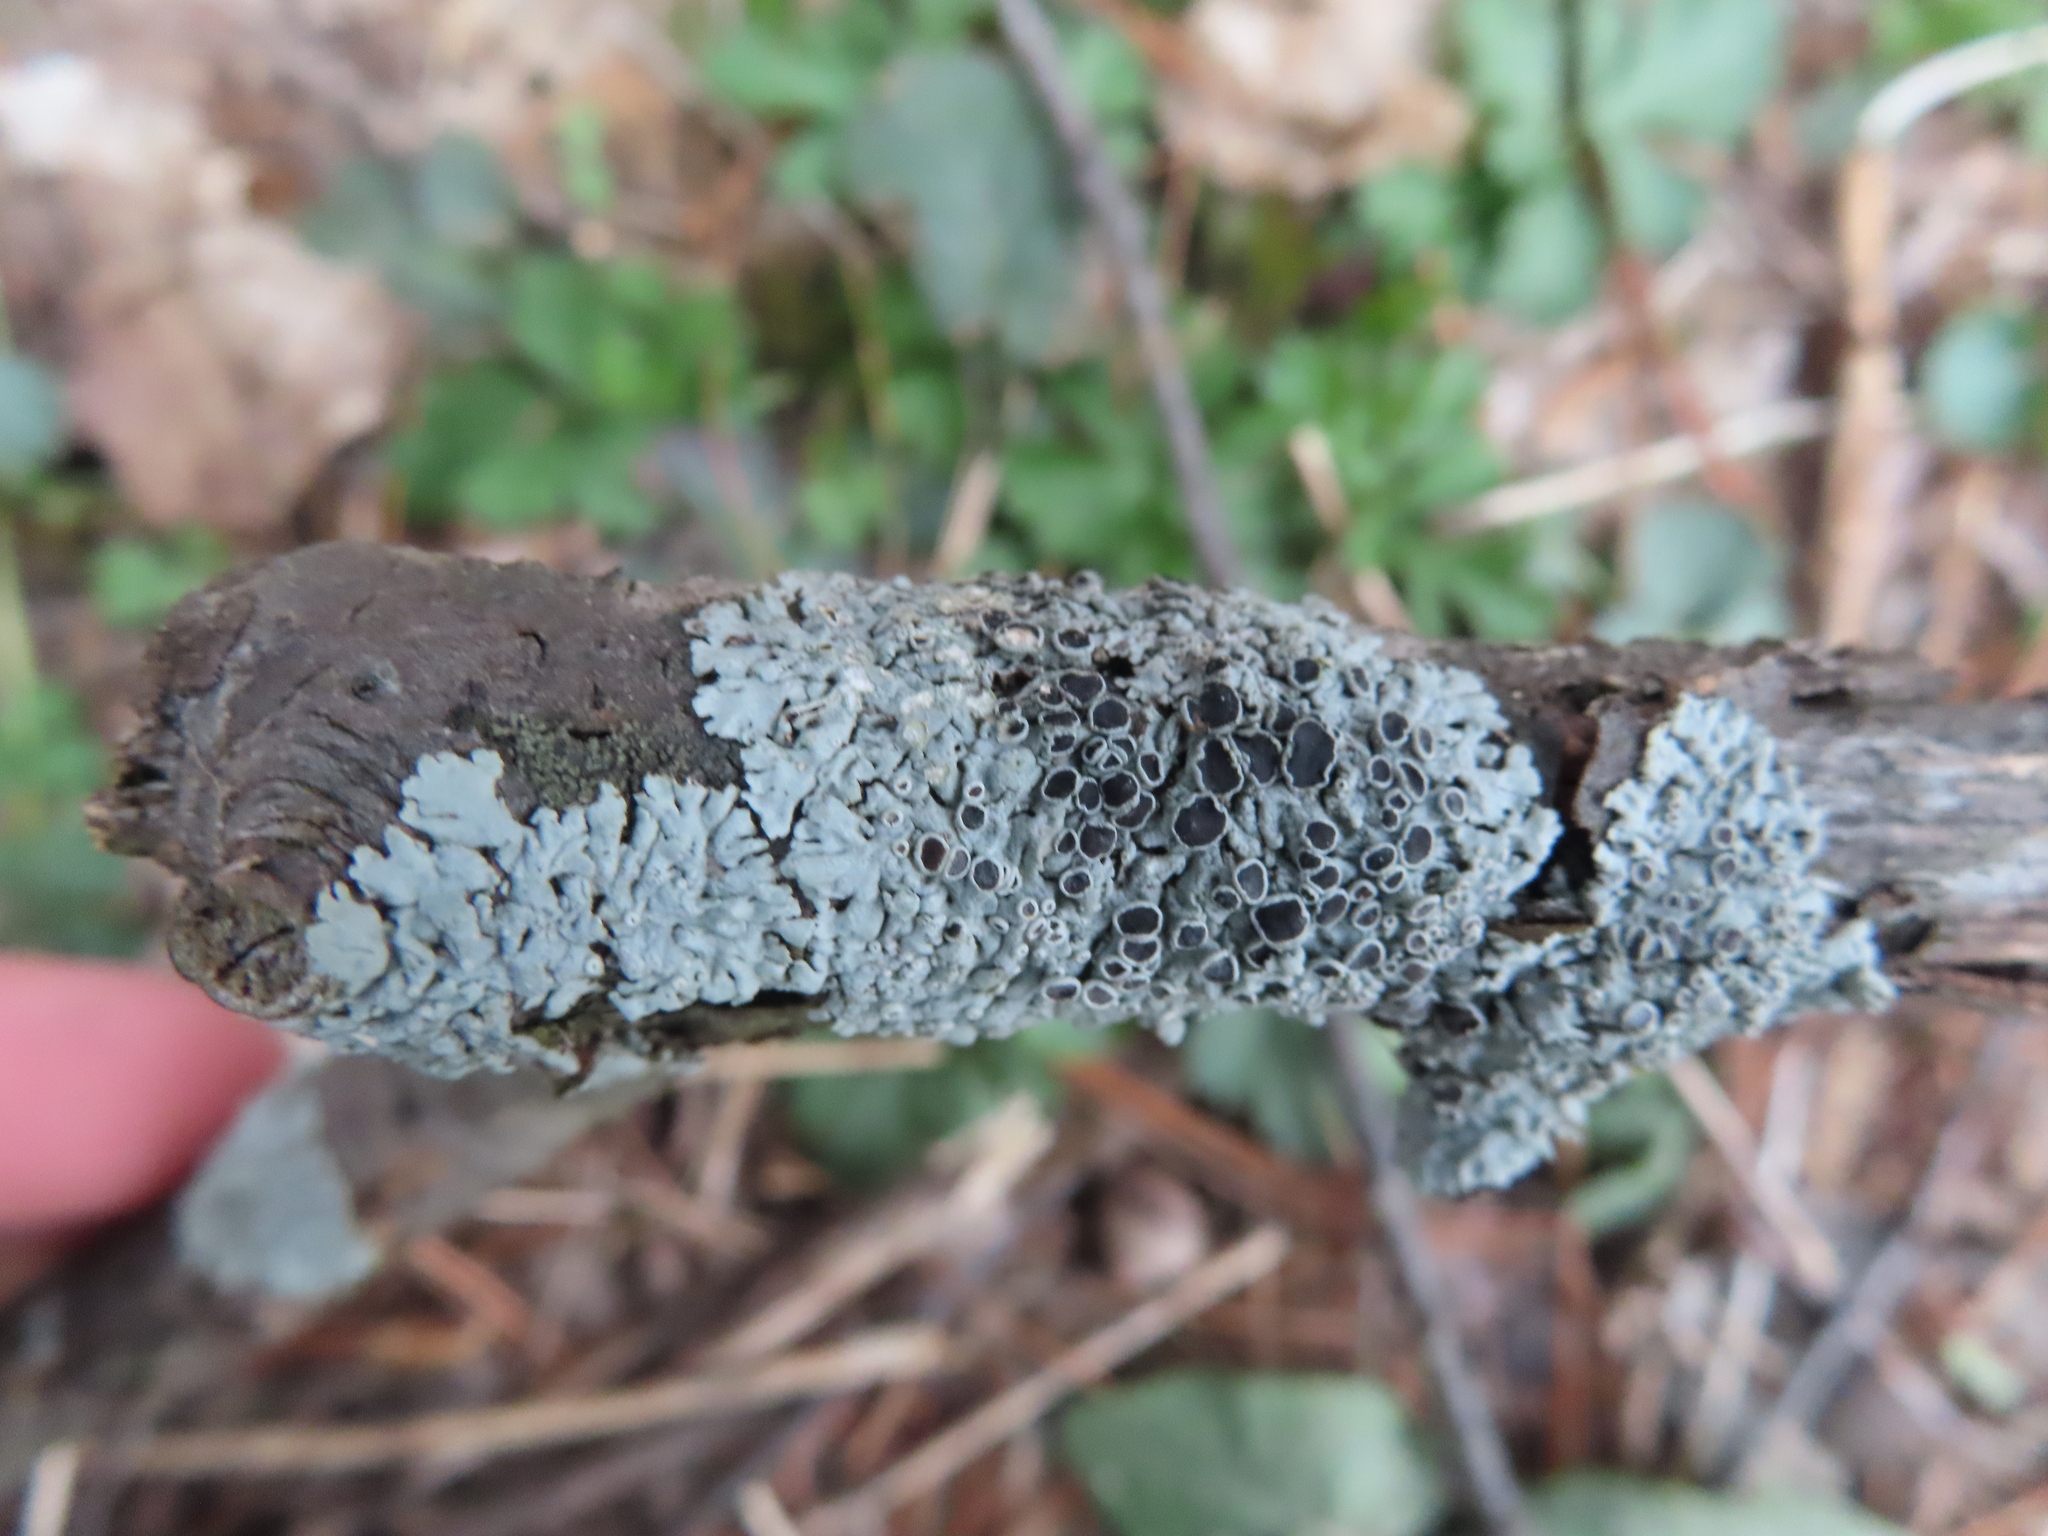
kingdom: Fungi
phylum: Ascomycota
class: Lecanoromycetes
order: Caliciales
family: Physciaceae
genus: Physcia
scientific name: Physcia
